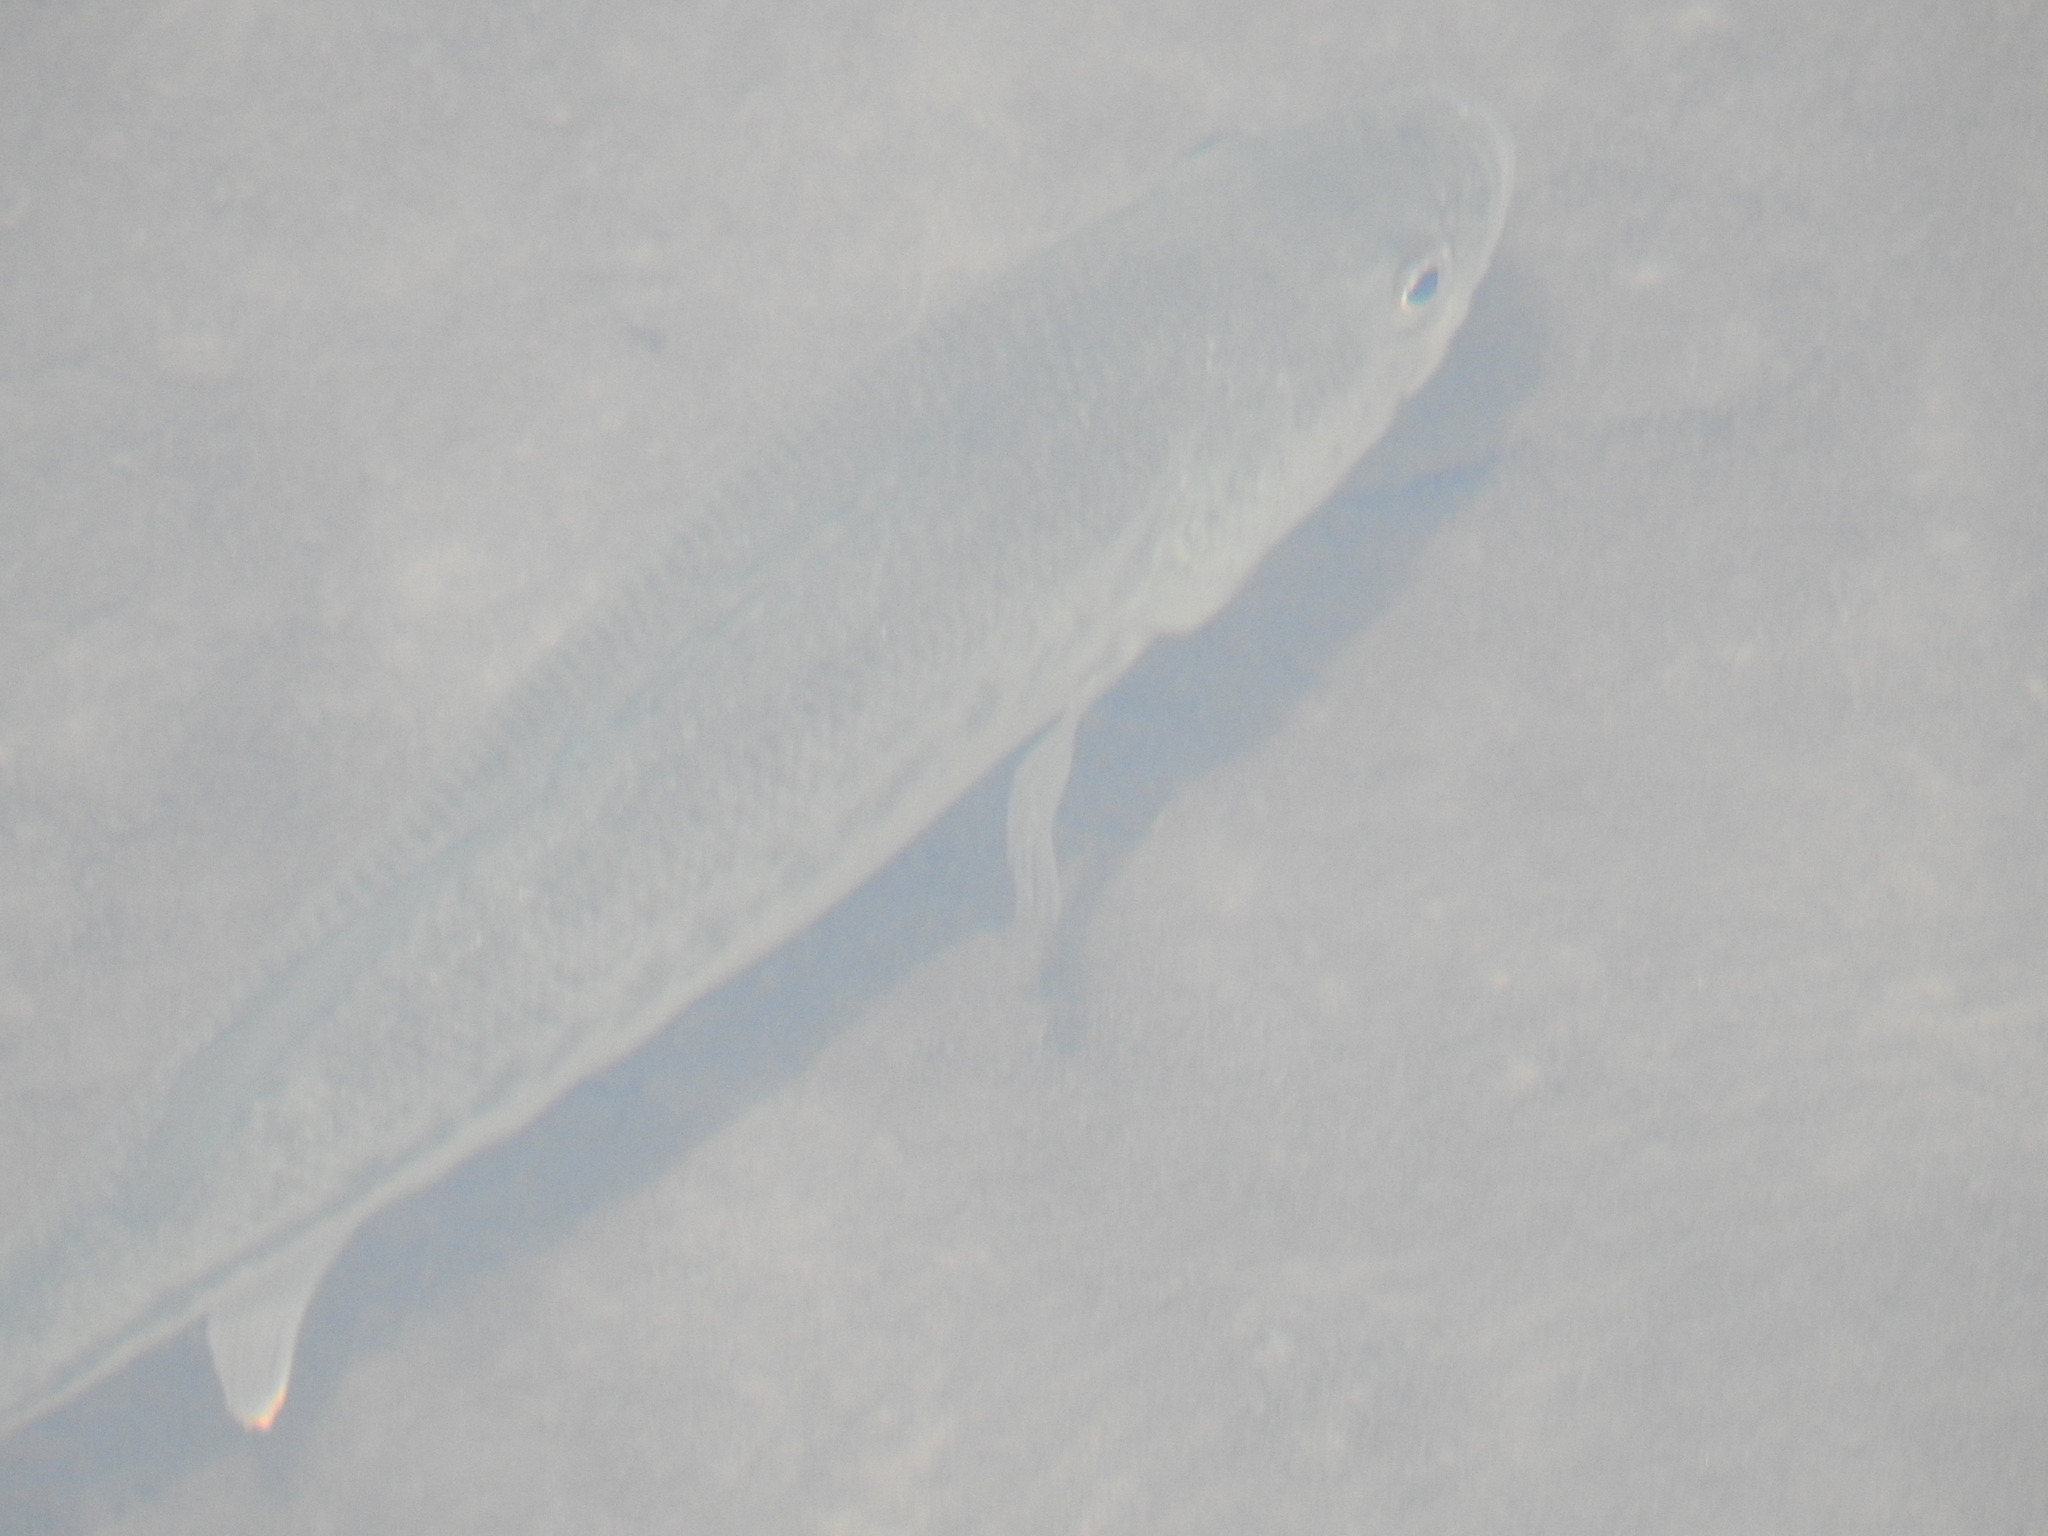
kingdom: Animalia
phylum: Chordata
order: Perciformes
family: Centrarchidae
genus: Micropterus
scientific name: Micropterus
